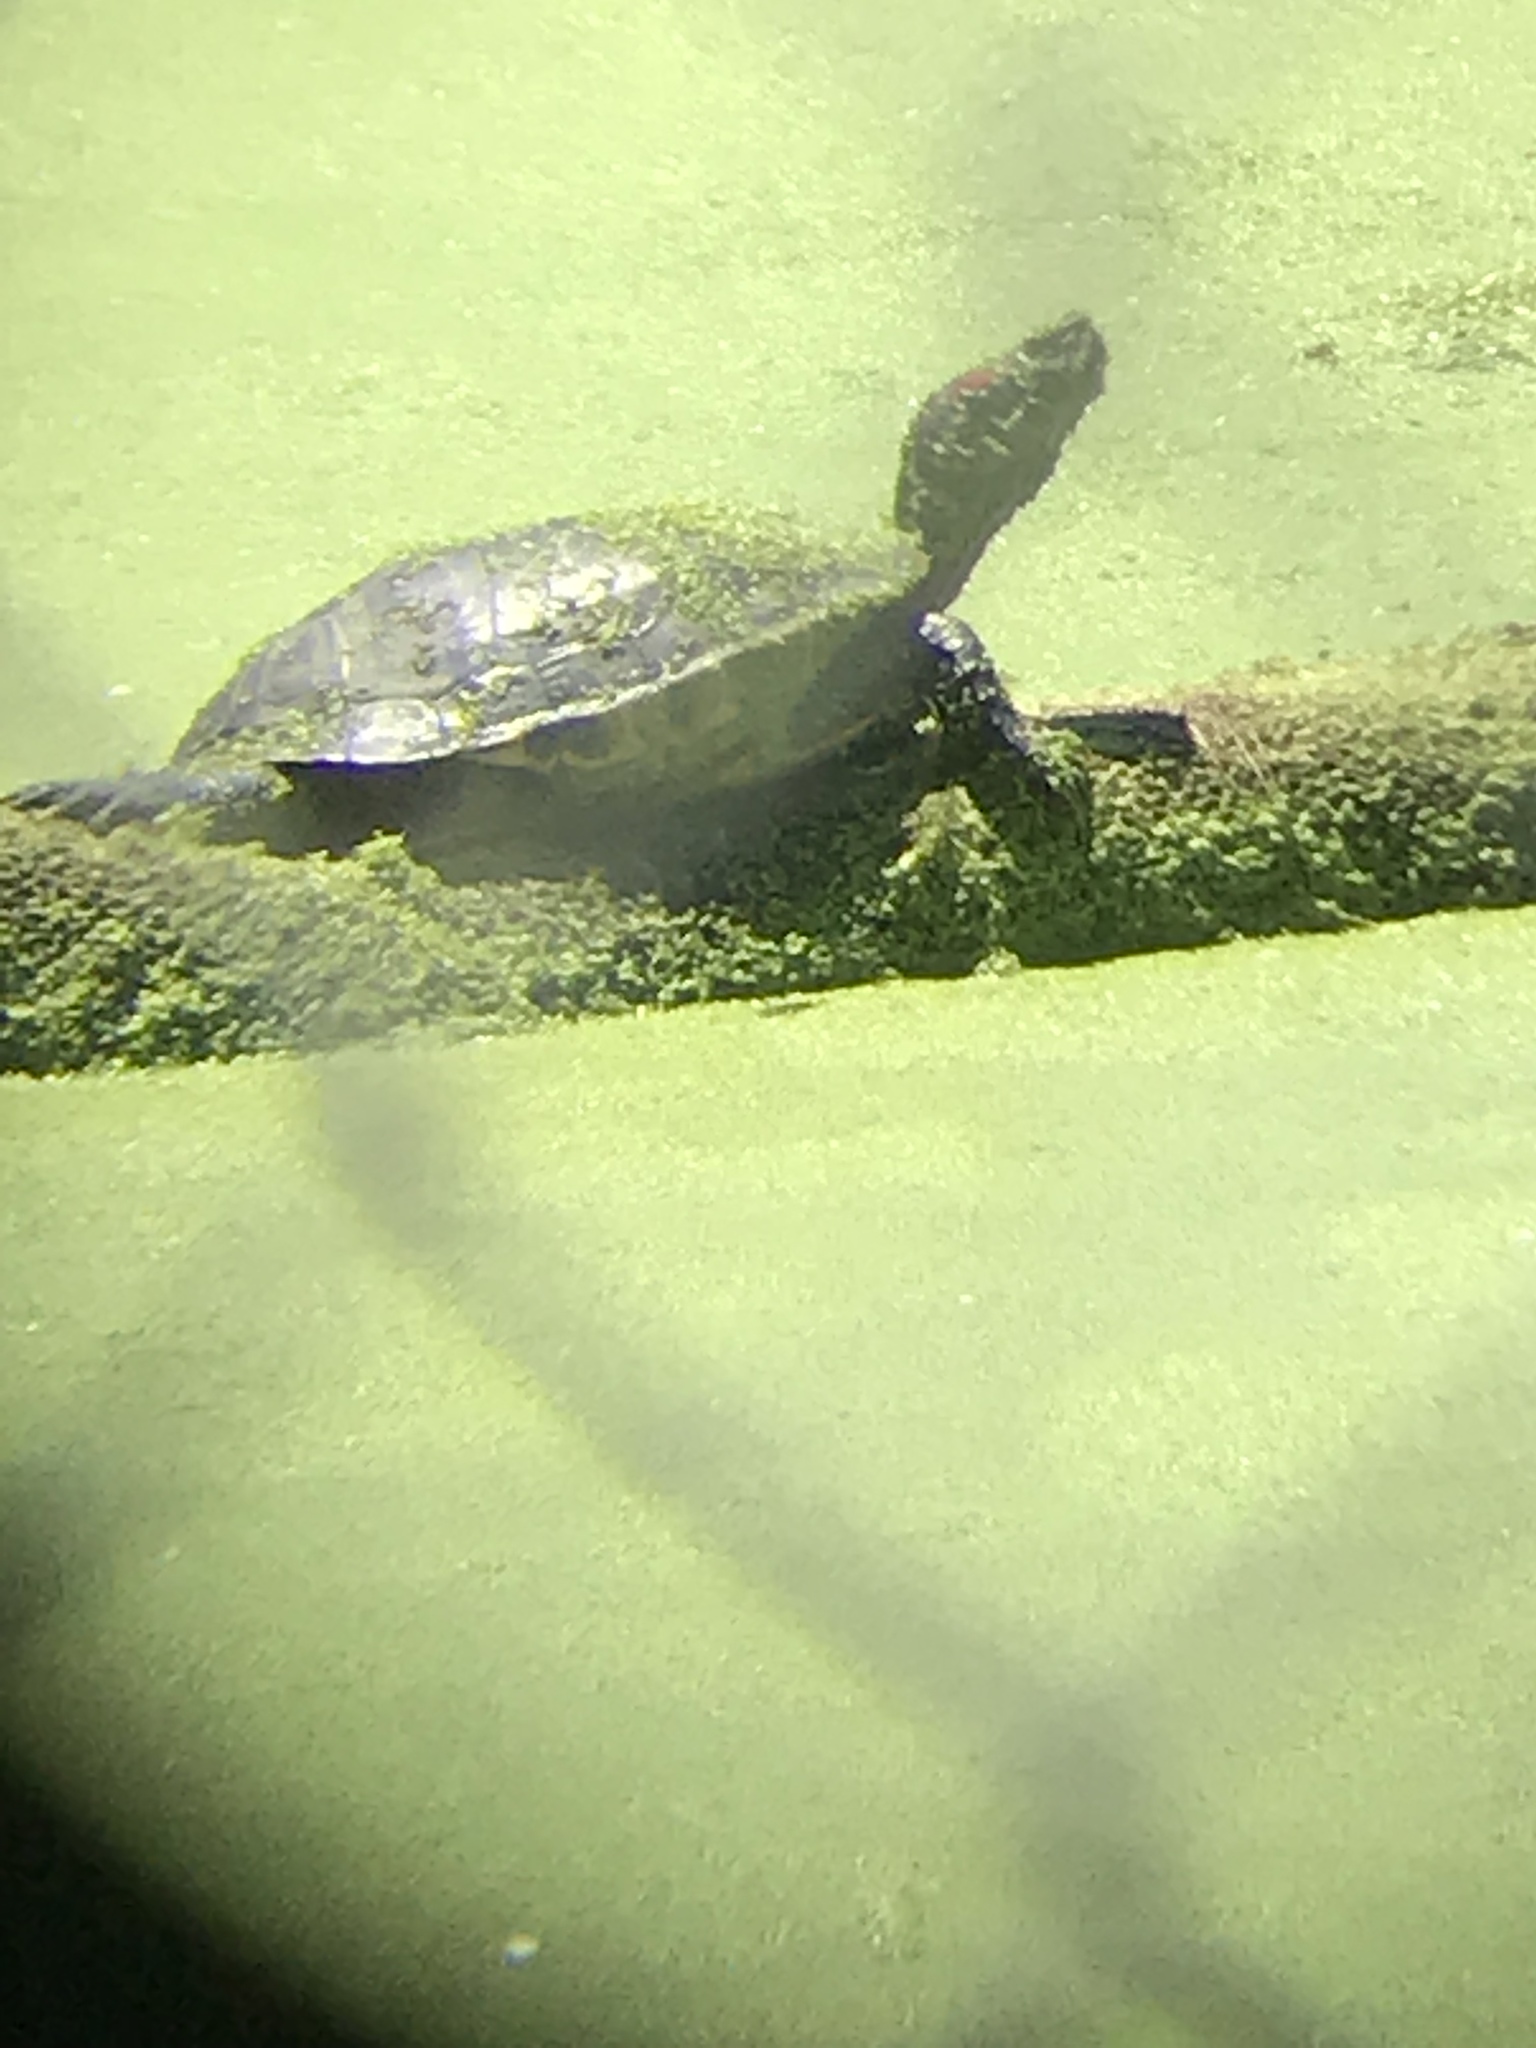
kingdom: Animalia
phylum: Chordata
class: Testudines
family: Emydidae
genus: Trachemys
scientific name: Trachemys scripta
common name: Slider
